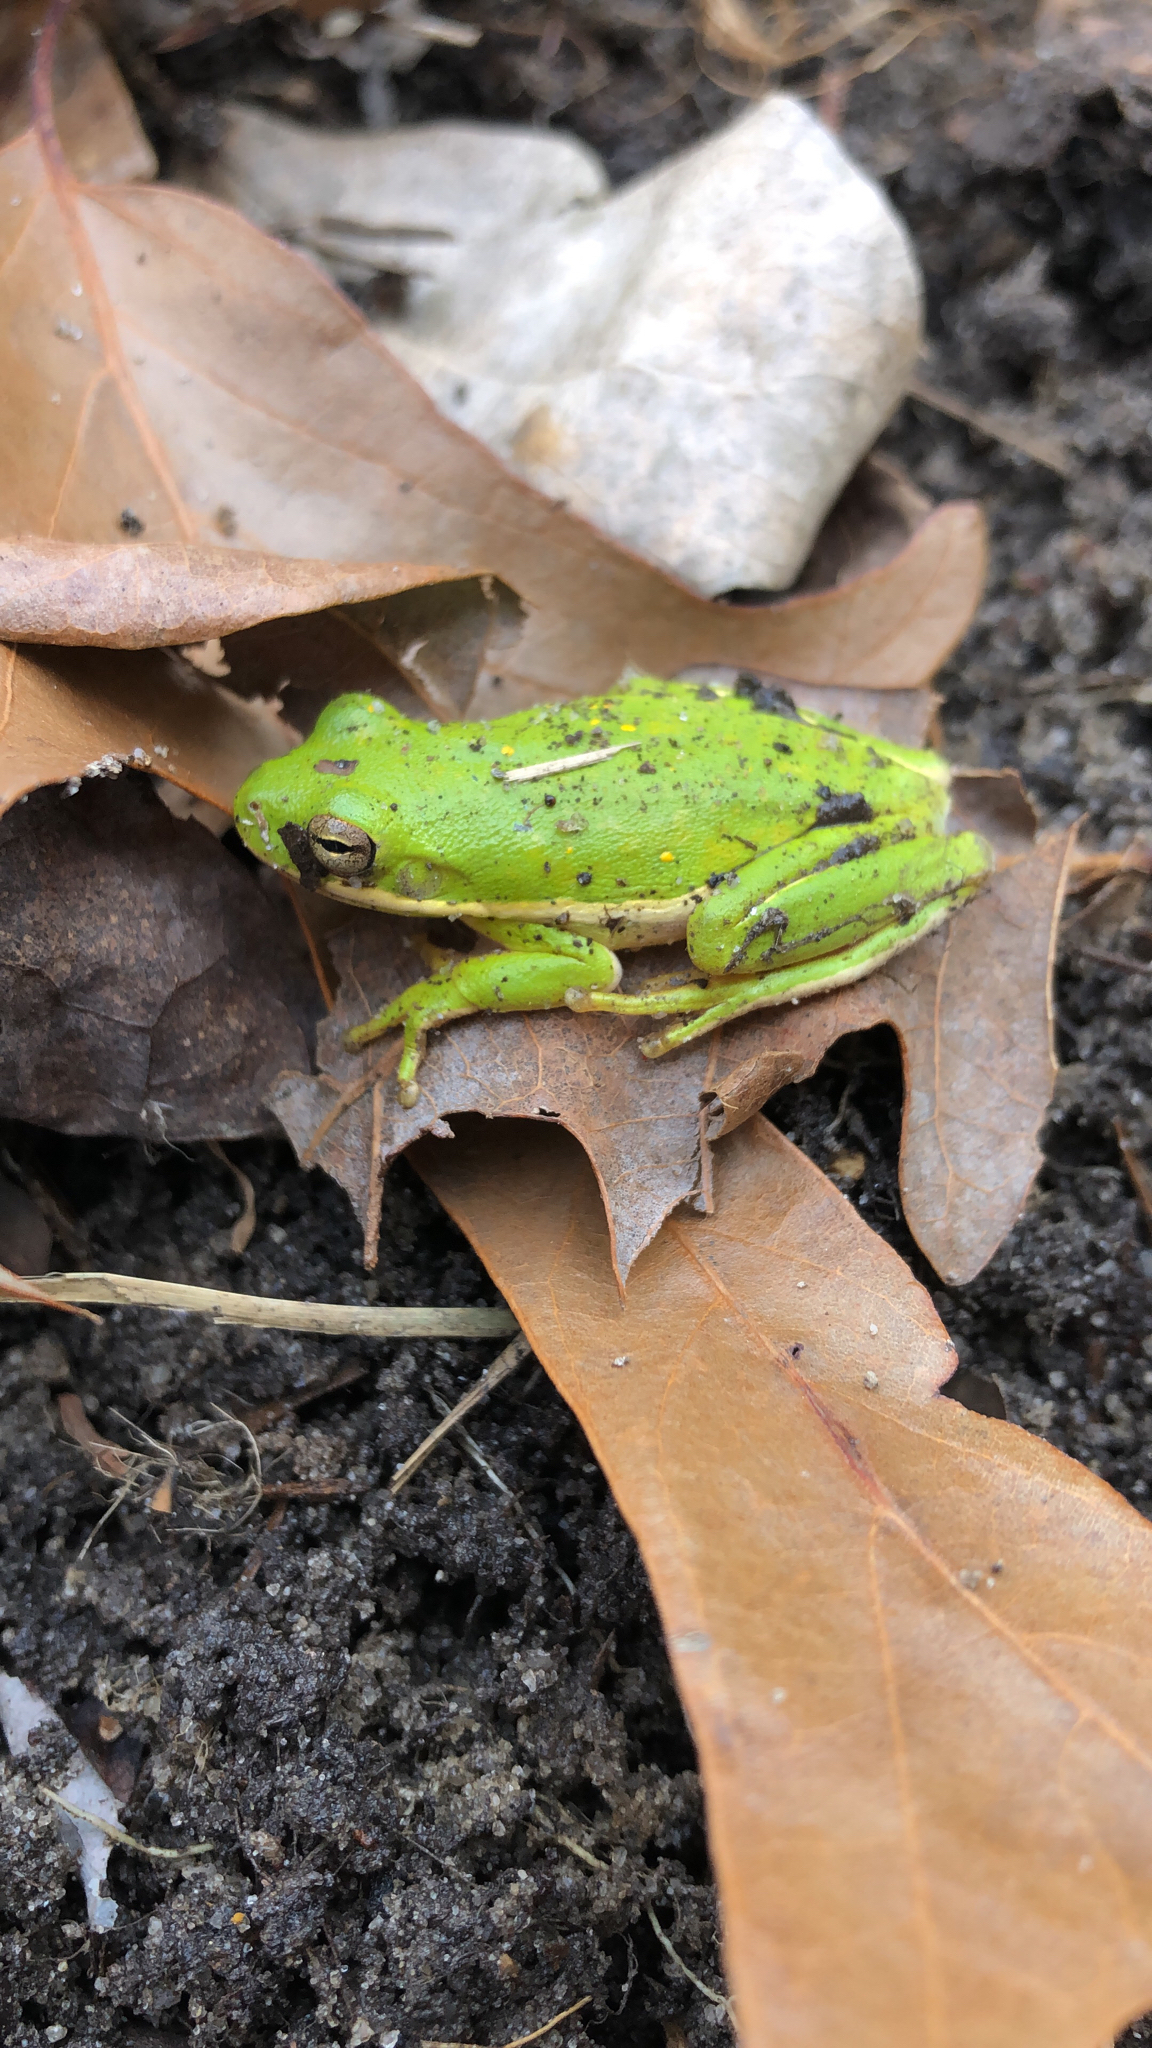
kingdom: Animalia
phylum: Chordata
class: Amphibia
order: Anura
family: Hylidae
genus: Dryophytes
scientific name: Dryophytes cinereus
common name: Green treefrog
